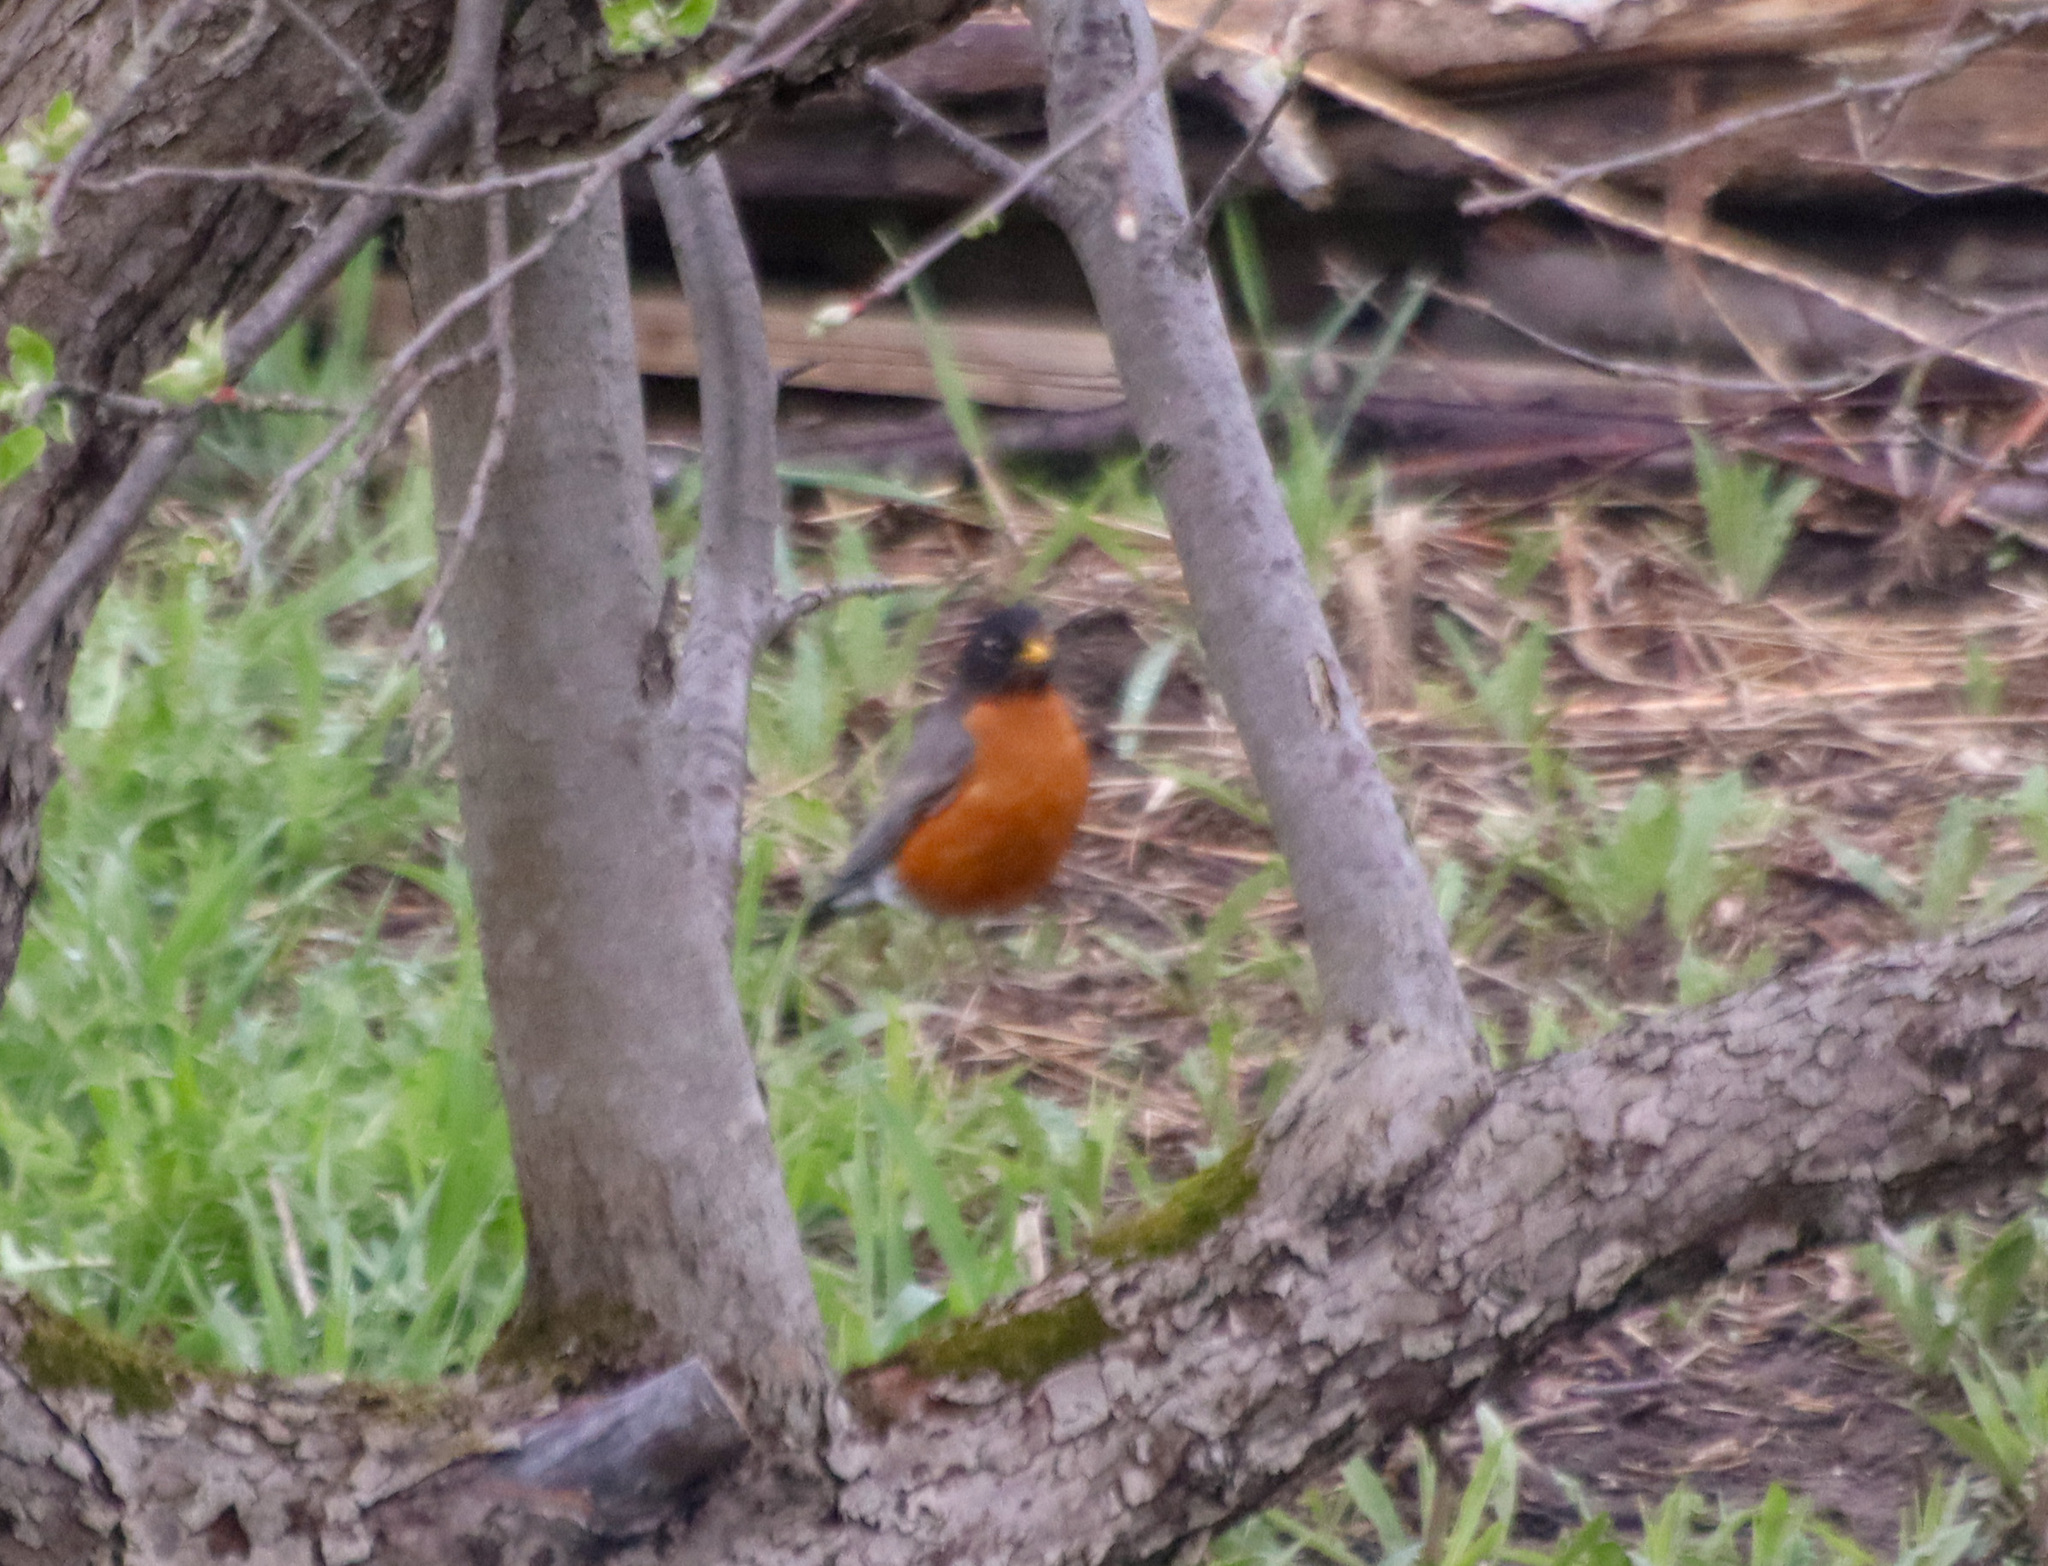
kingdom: Animalia
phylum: Chordata
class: Aves
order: Passeriformes
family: Turdidae
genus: Turdus
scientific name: Turdus migratorius
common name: American robin
